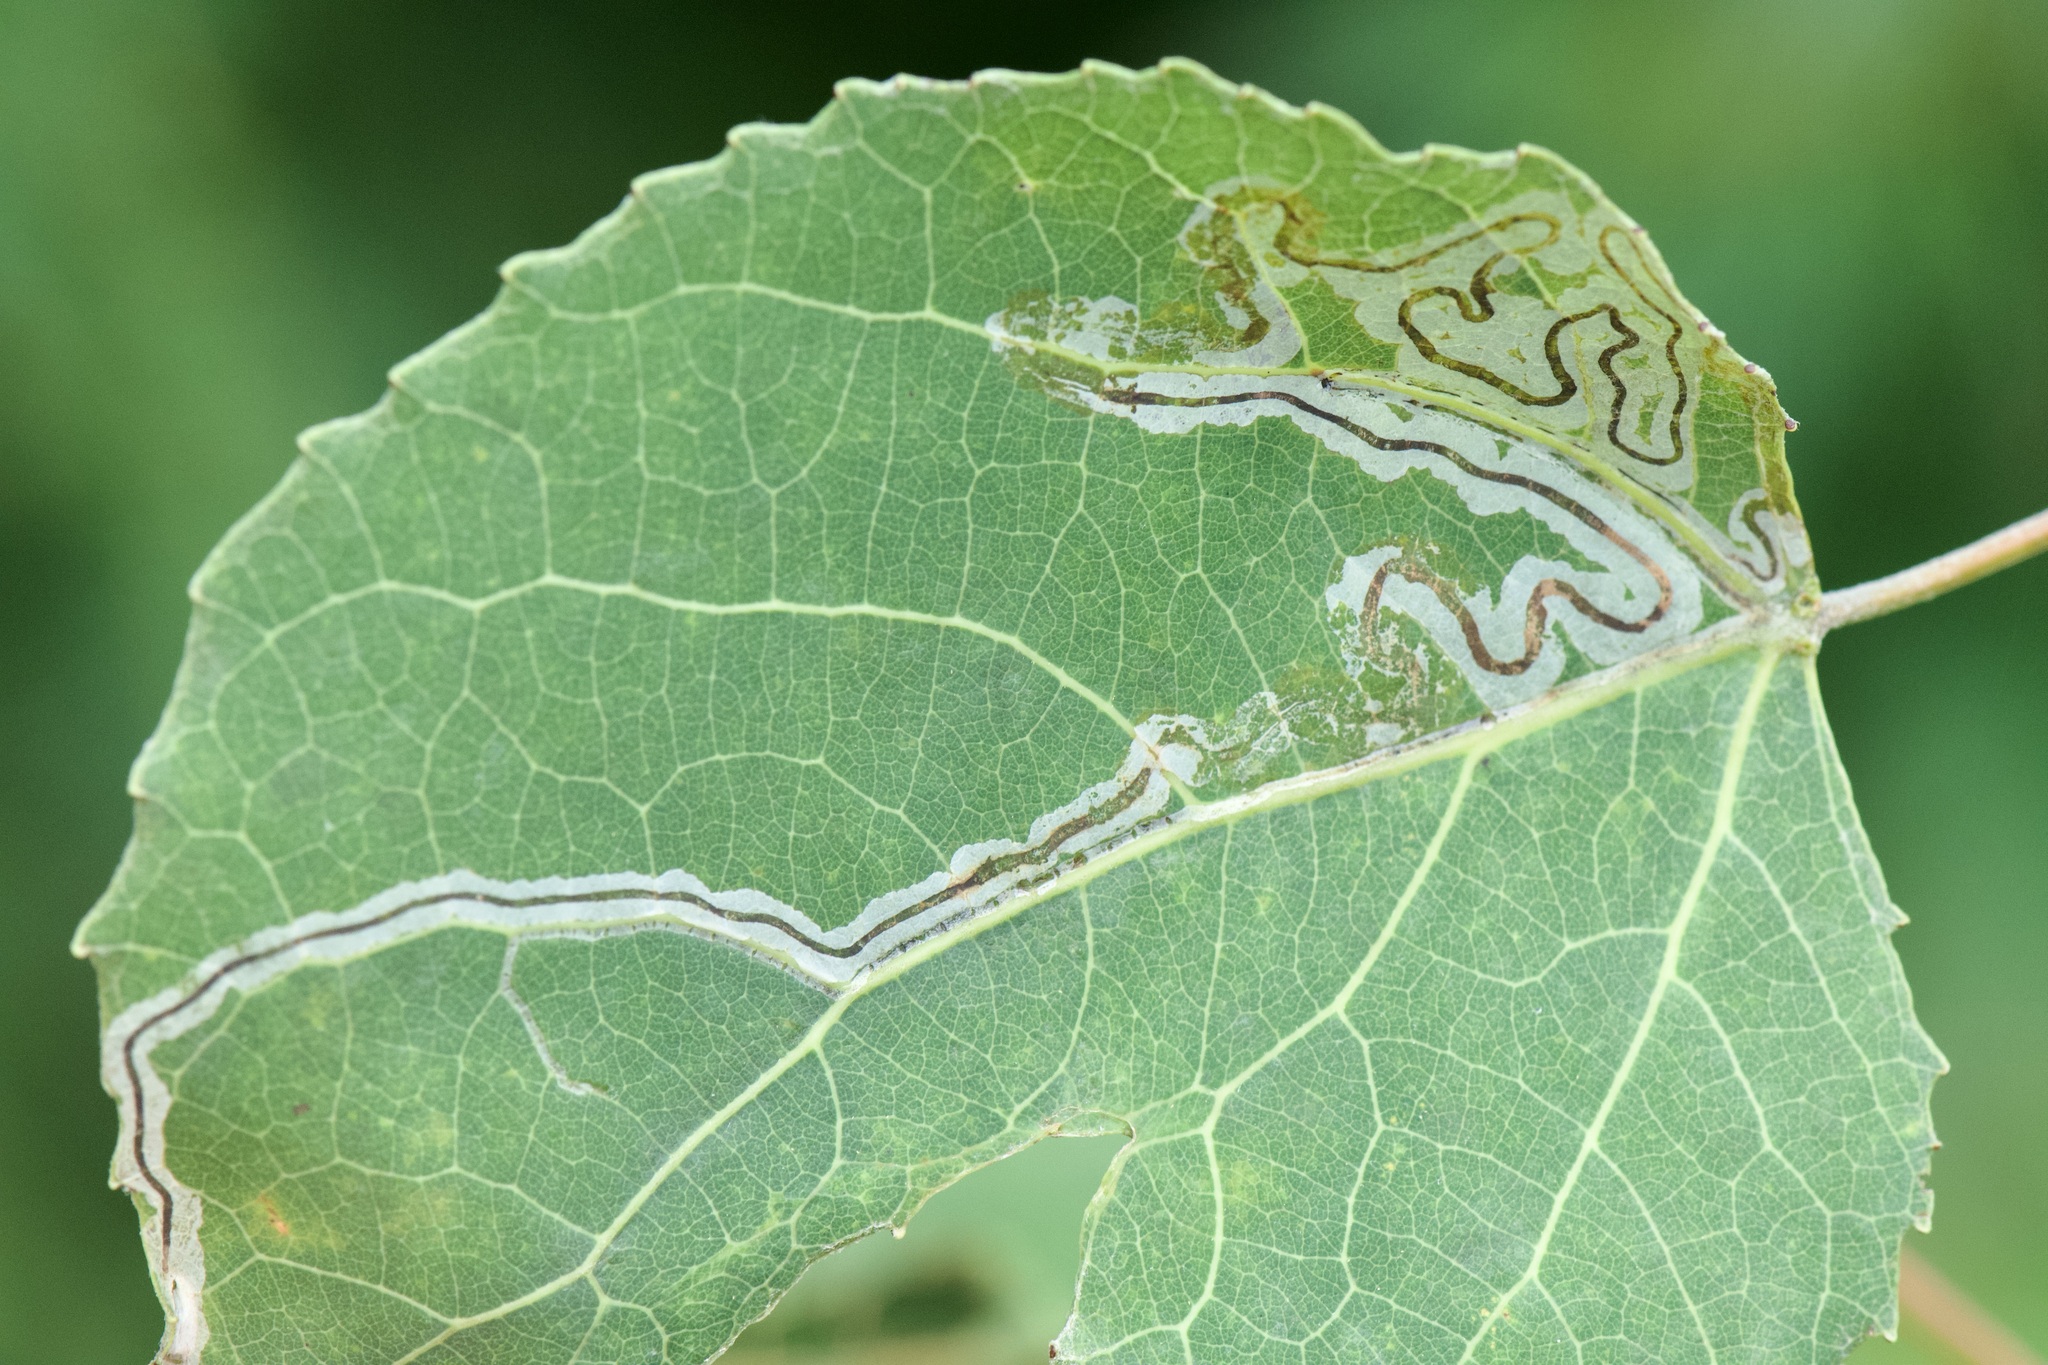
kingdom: Animalia
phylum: Arthropoda
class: Insecta
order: Lepidoptera
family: Gracillariidae
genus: Phyllocnistis
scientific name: Phyllocnistis populiella
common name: Aspen serpentine leafminer moth
